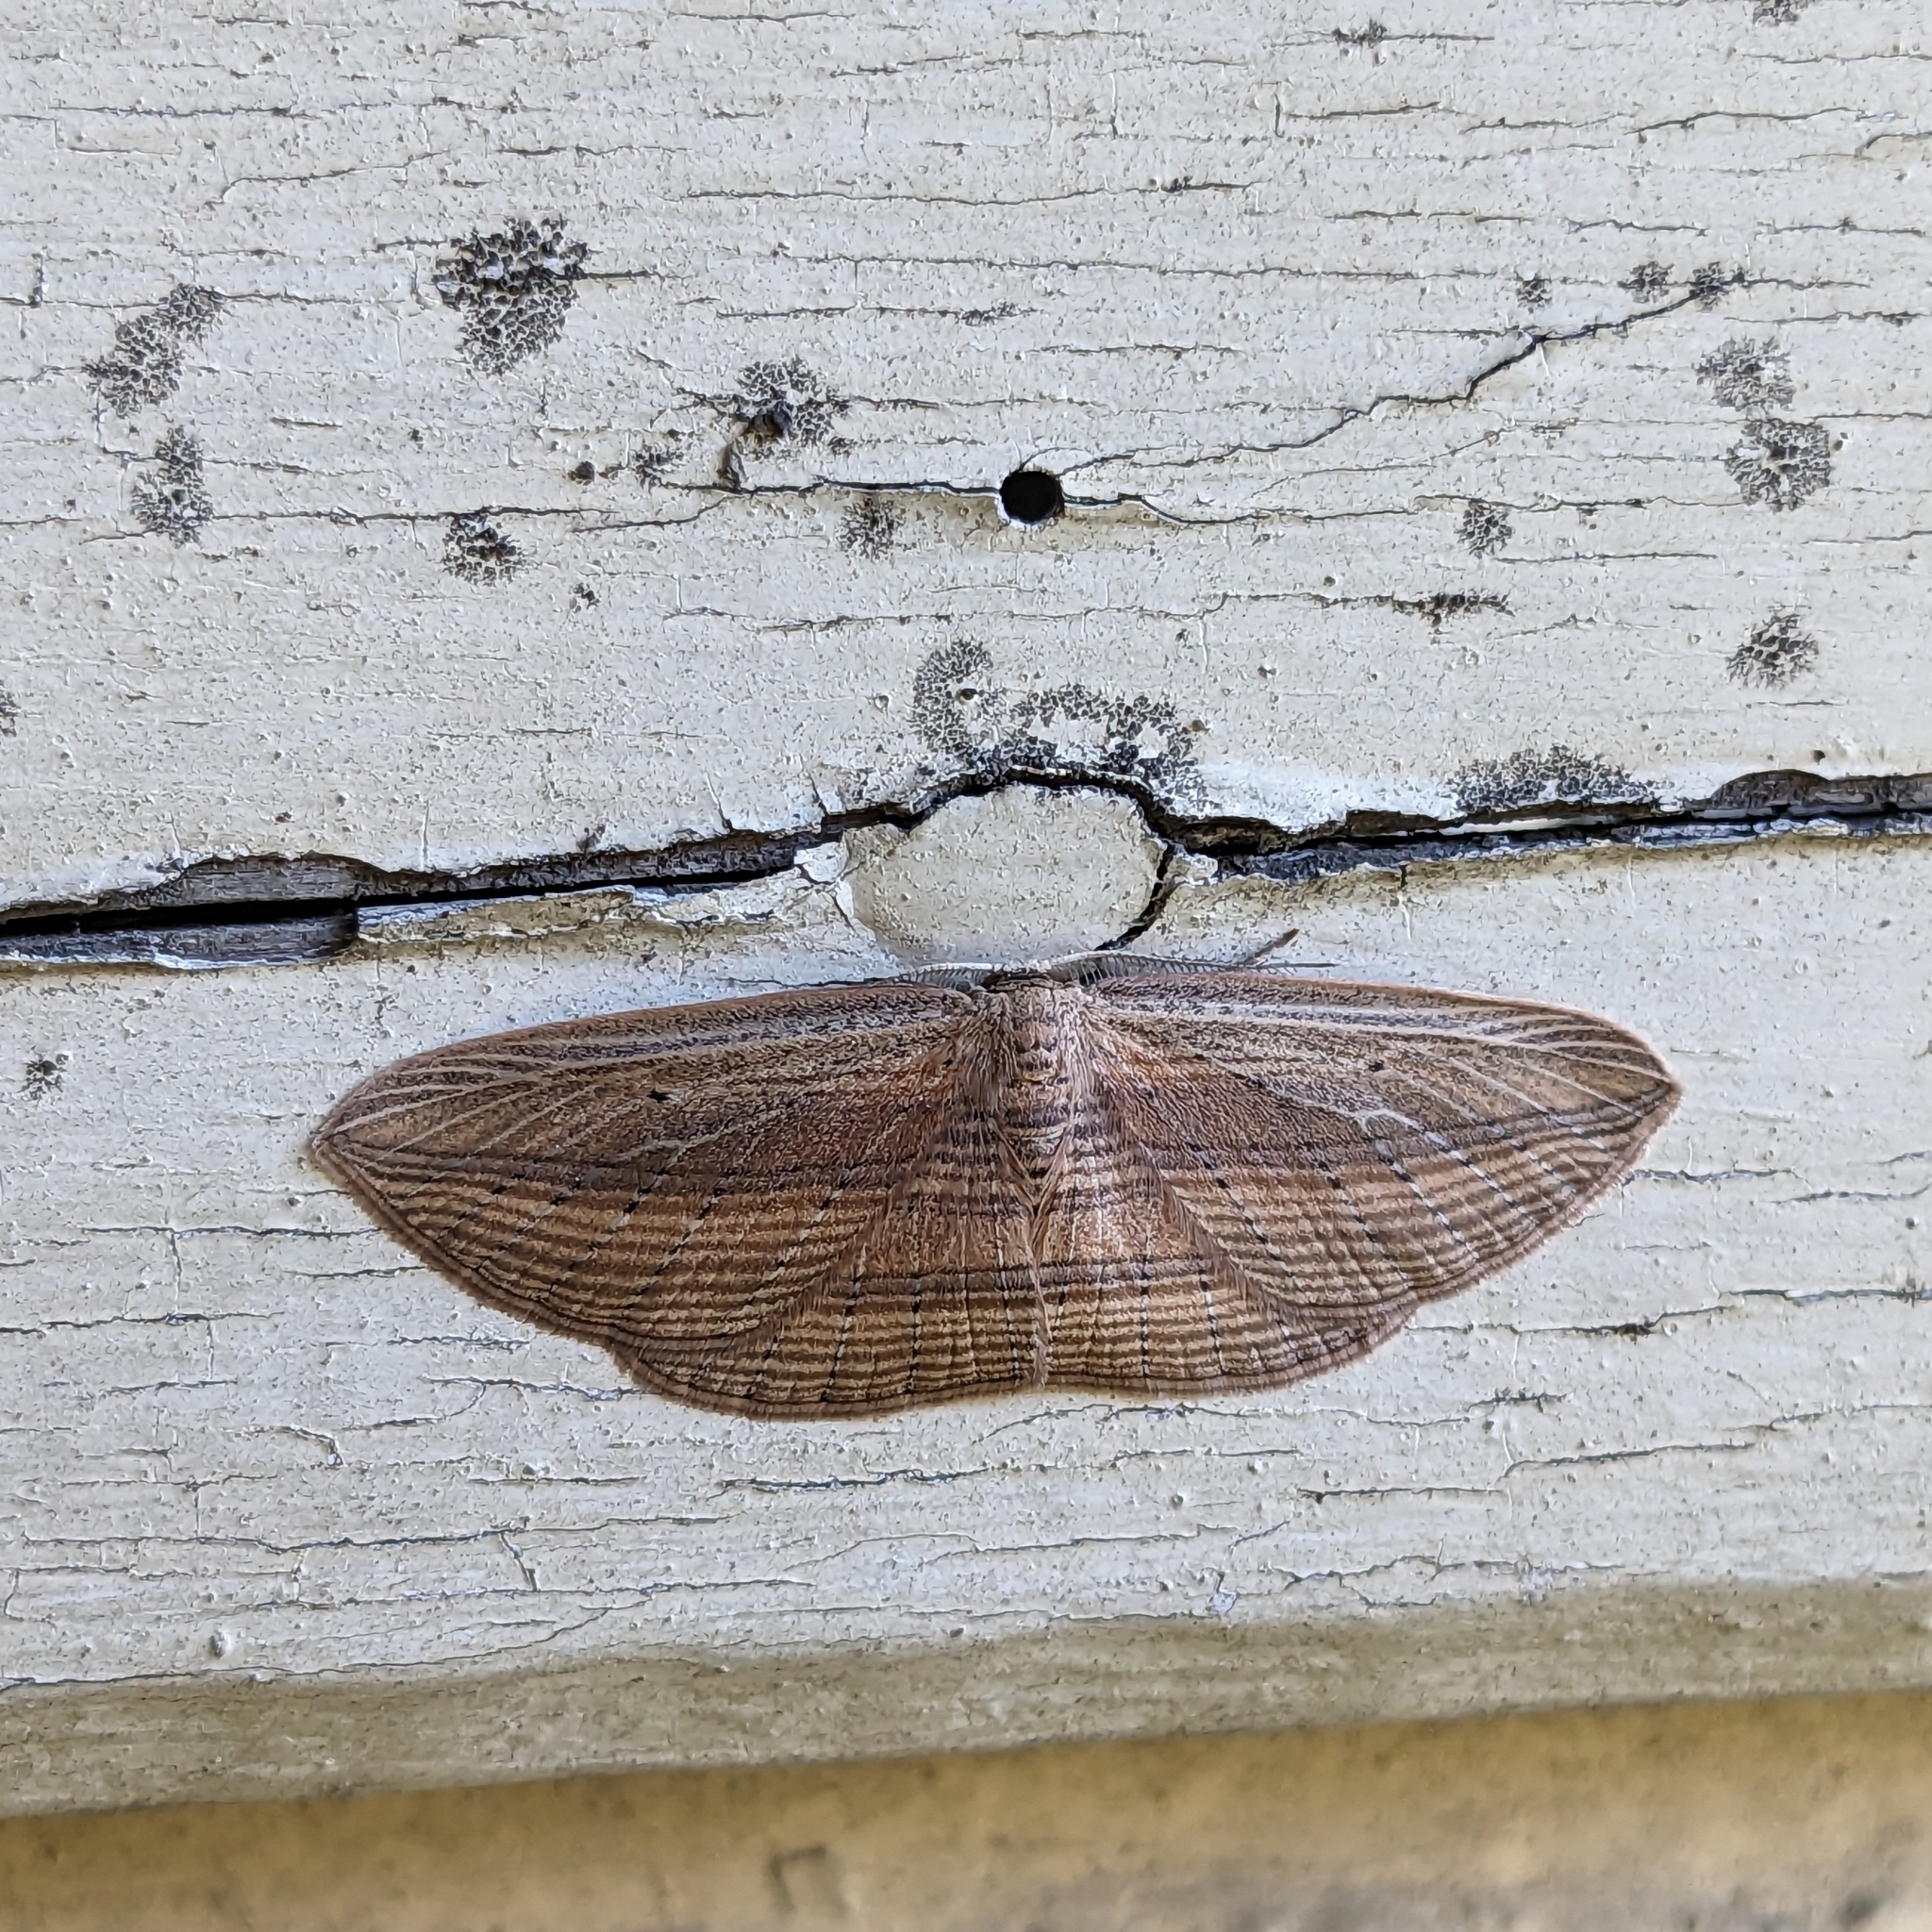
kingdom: Animalia
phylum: Arthropoda
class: Insecta
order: Lepidoptera
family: Geometridae
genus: Epiphryne
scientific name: Epiphryne verriculata
